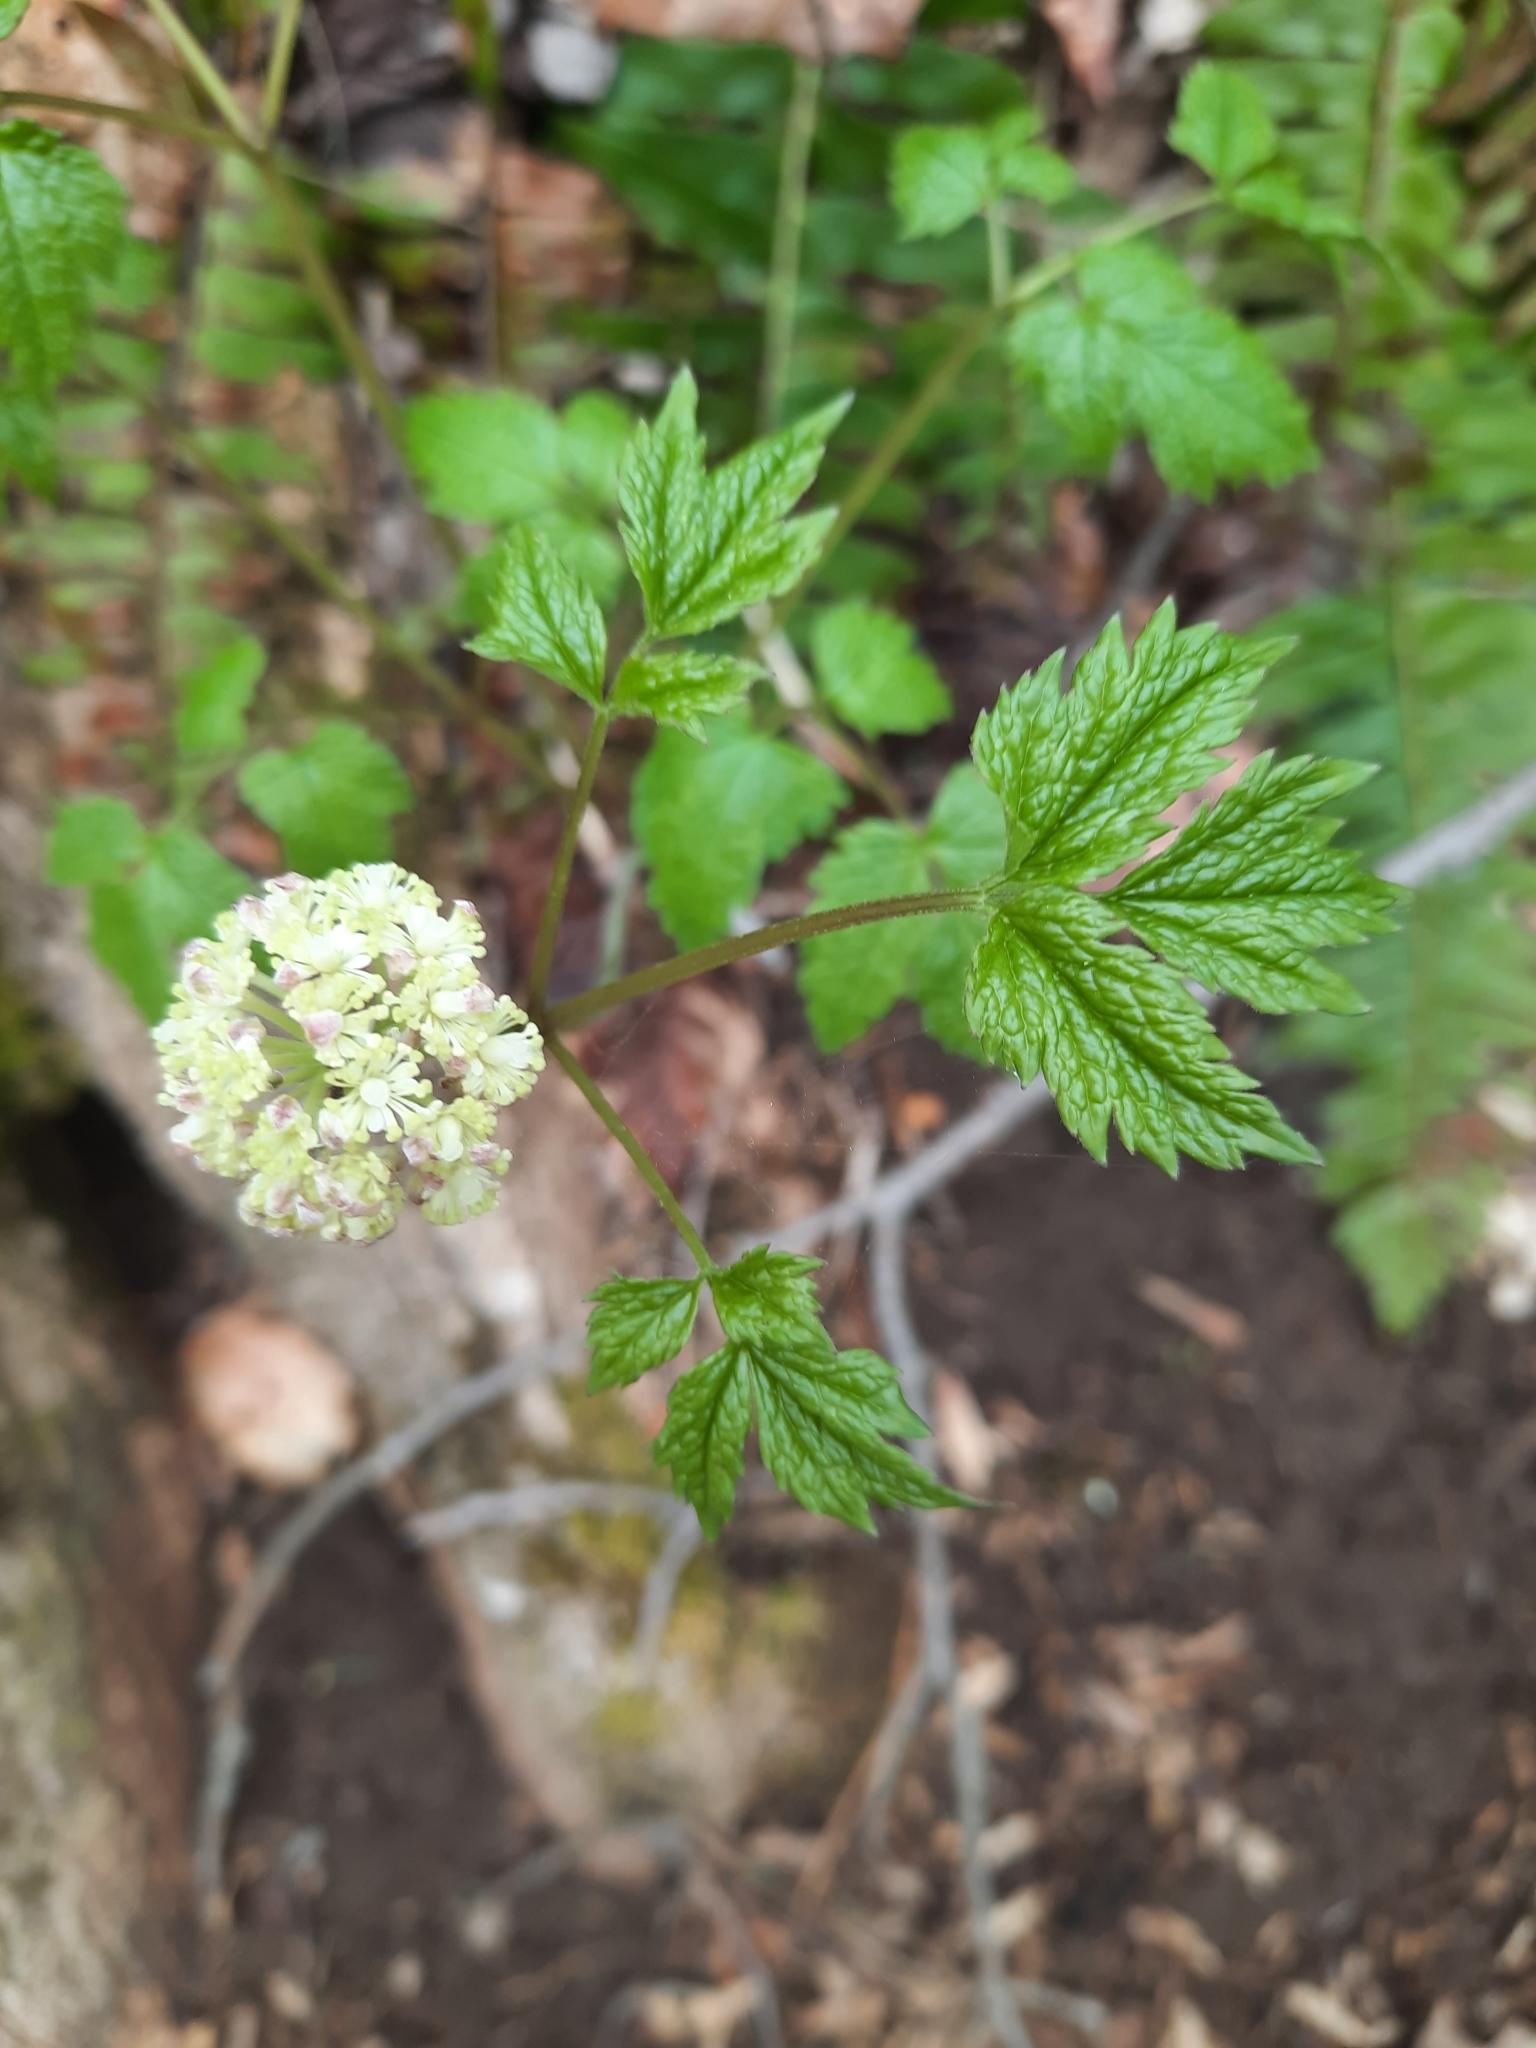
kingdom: Plantae
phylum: Tracheophyta
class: Magnoliopsida
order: Ranunculales
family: Ranunculaceae
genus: Actaea
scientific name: Actaea pachypoda
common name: Doll's-eyes
